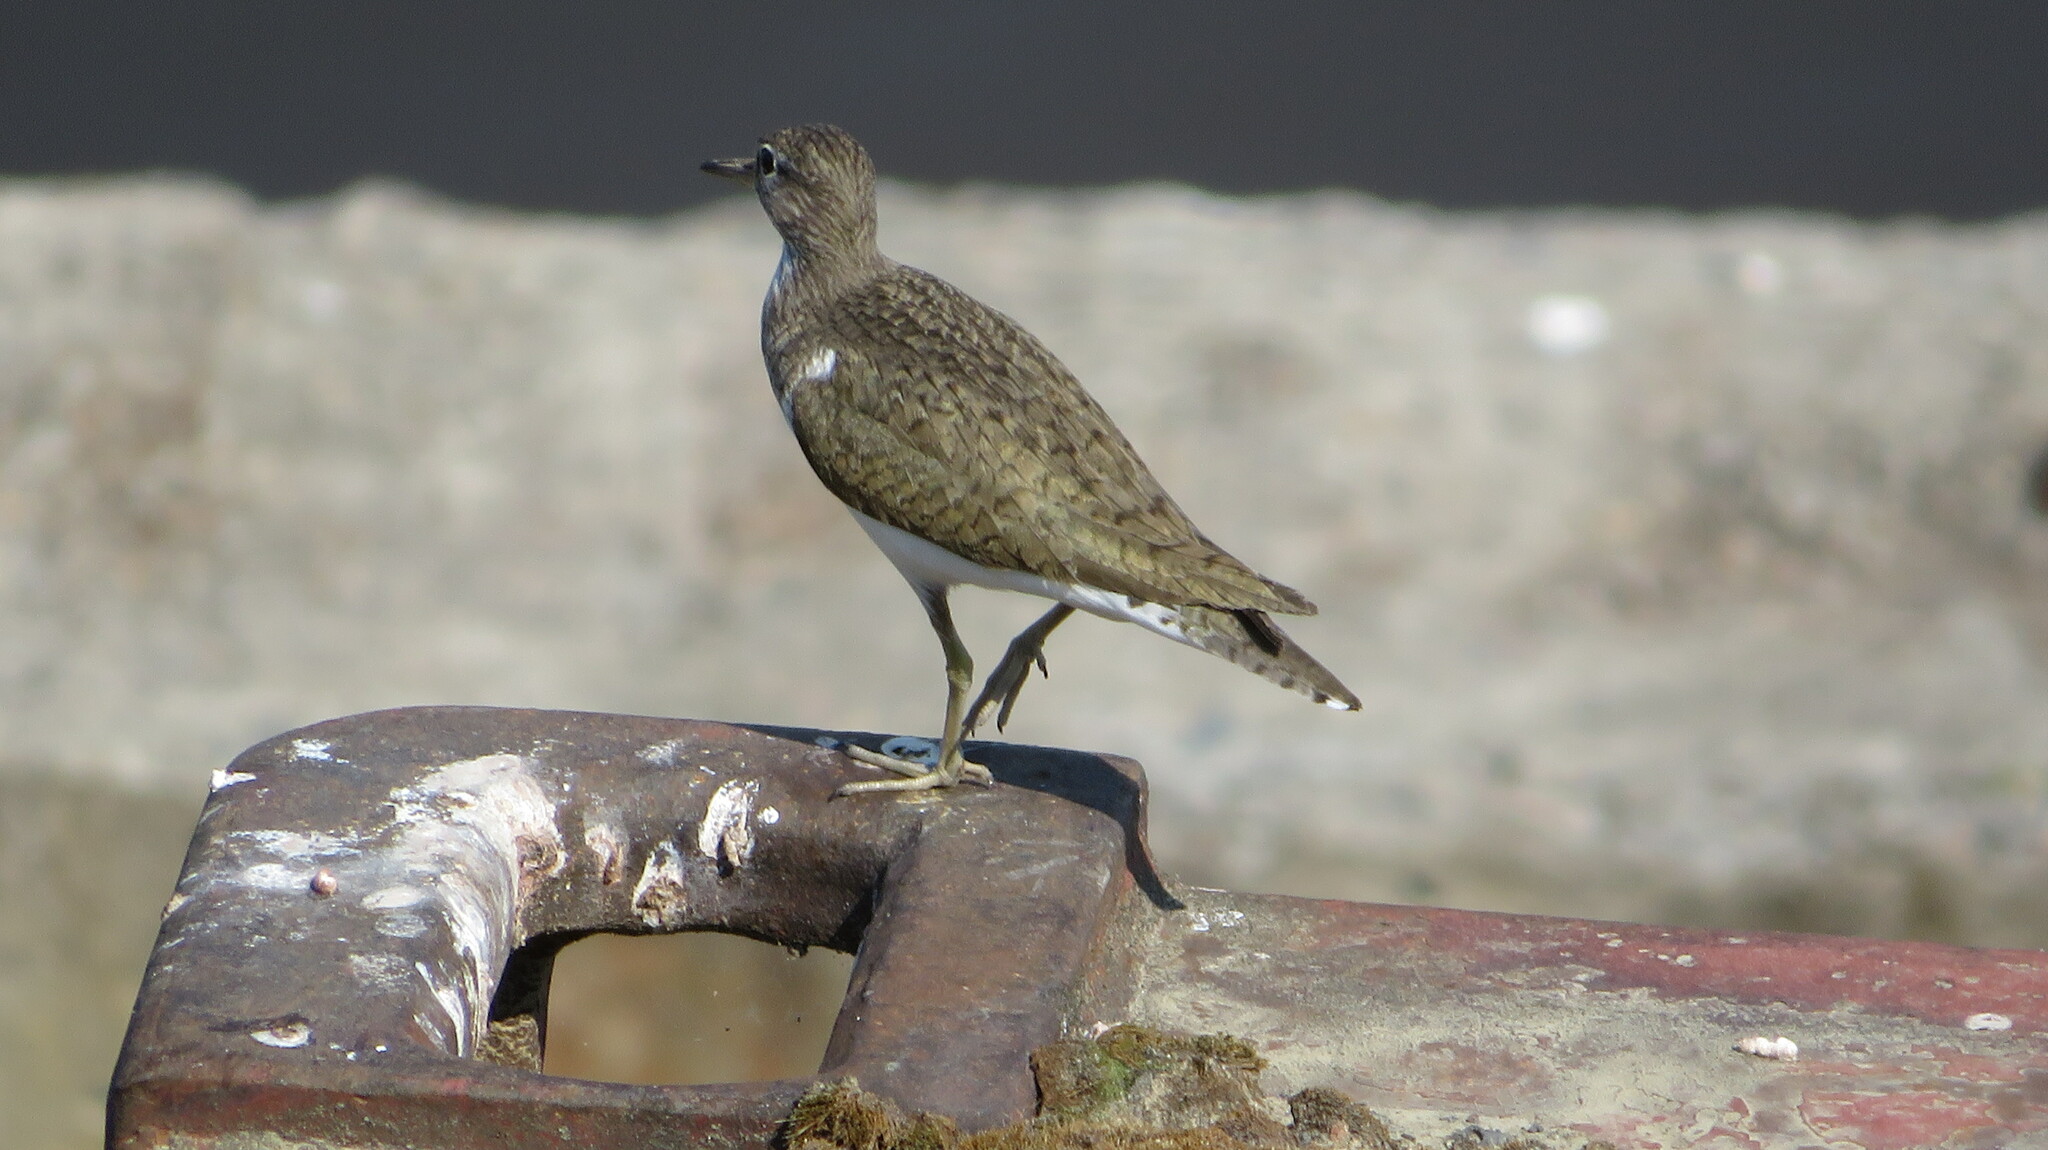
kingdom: Animalia
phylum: Chordata
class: Aves
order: Charadriiformes
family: Scolopacidae
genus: Actitis
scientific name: Actitis hypoleucos
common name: Common sandpiper
